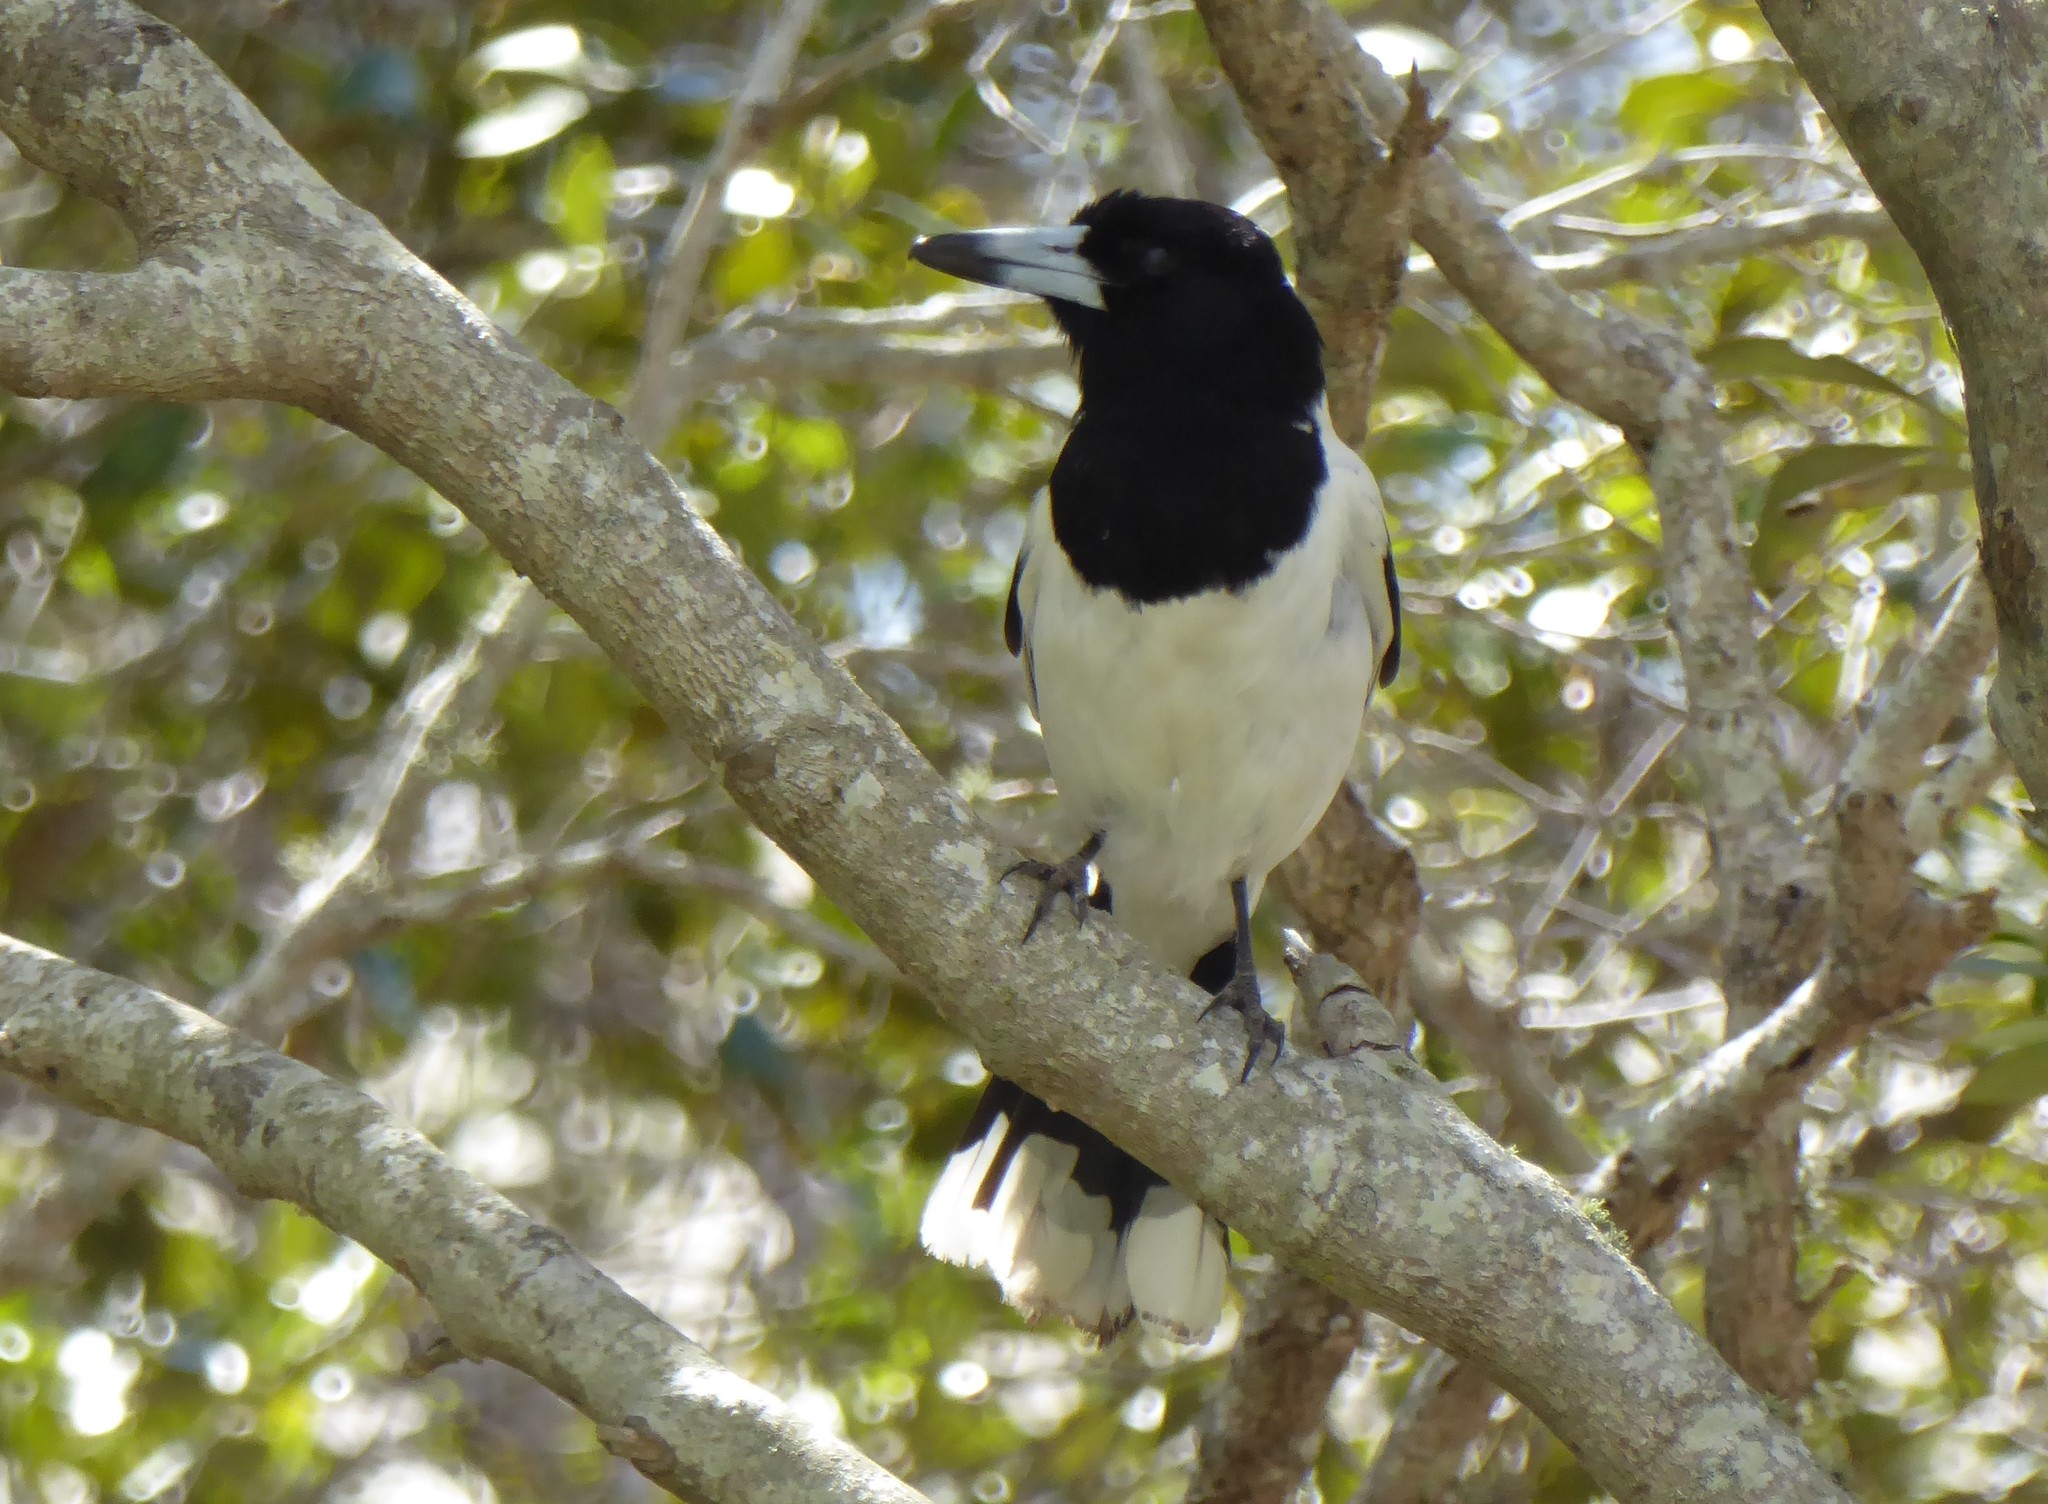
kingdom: Animalia
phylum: Chordata
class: Aves
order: Passeriformes
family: Cracticidae
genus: Cracticus
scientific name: Cracticus nigrogularis
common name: Pied butcherbird
